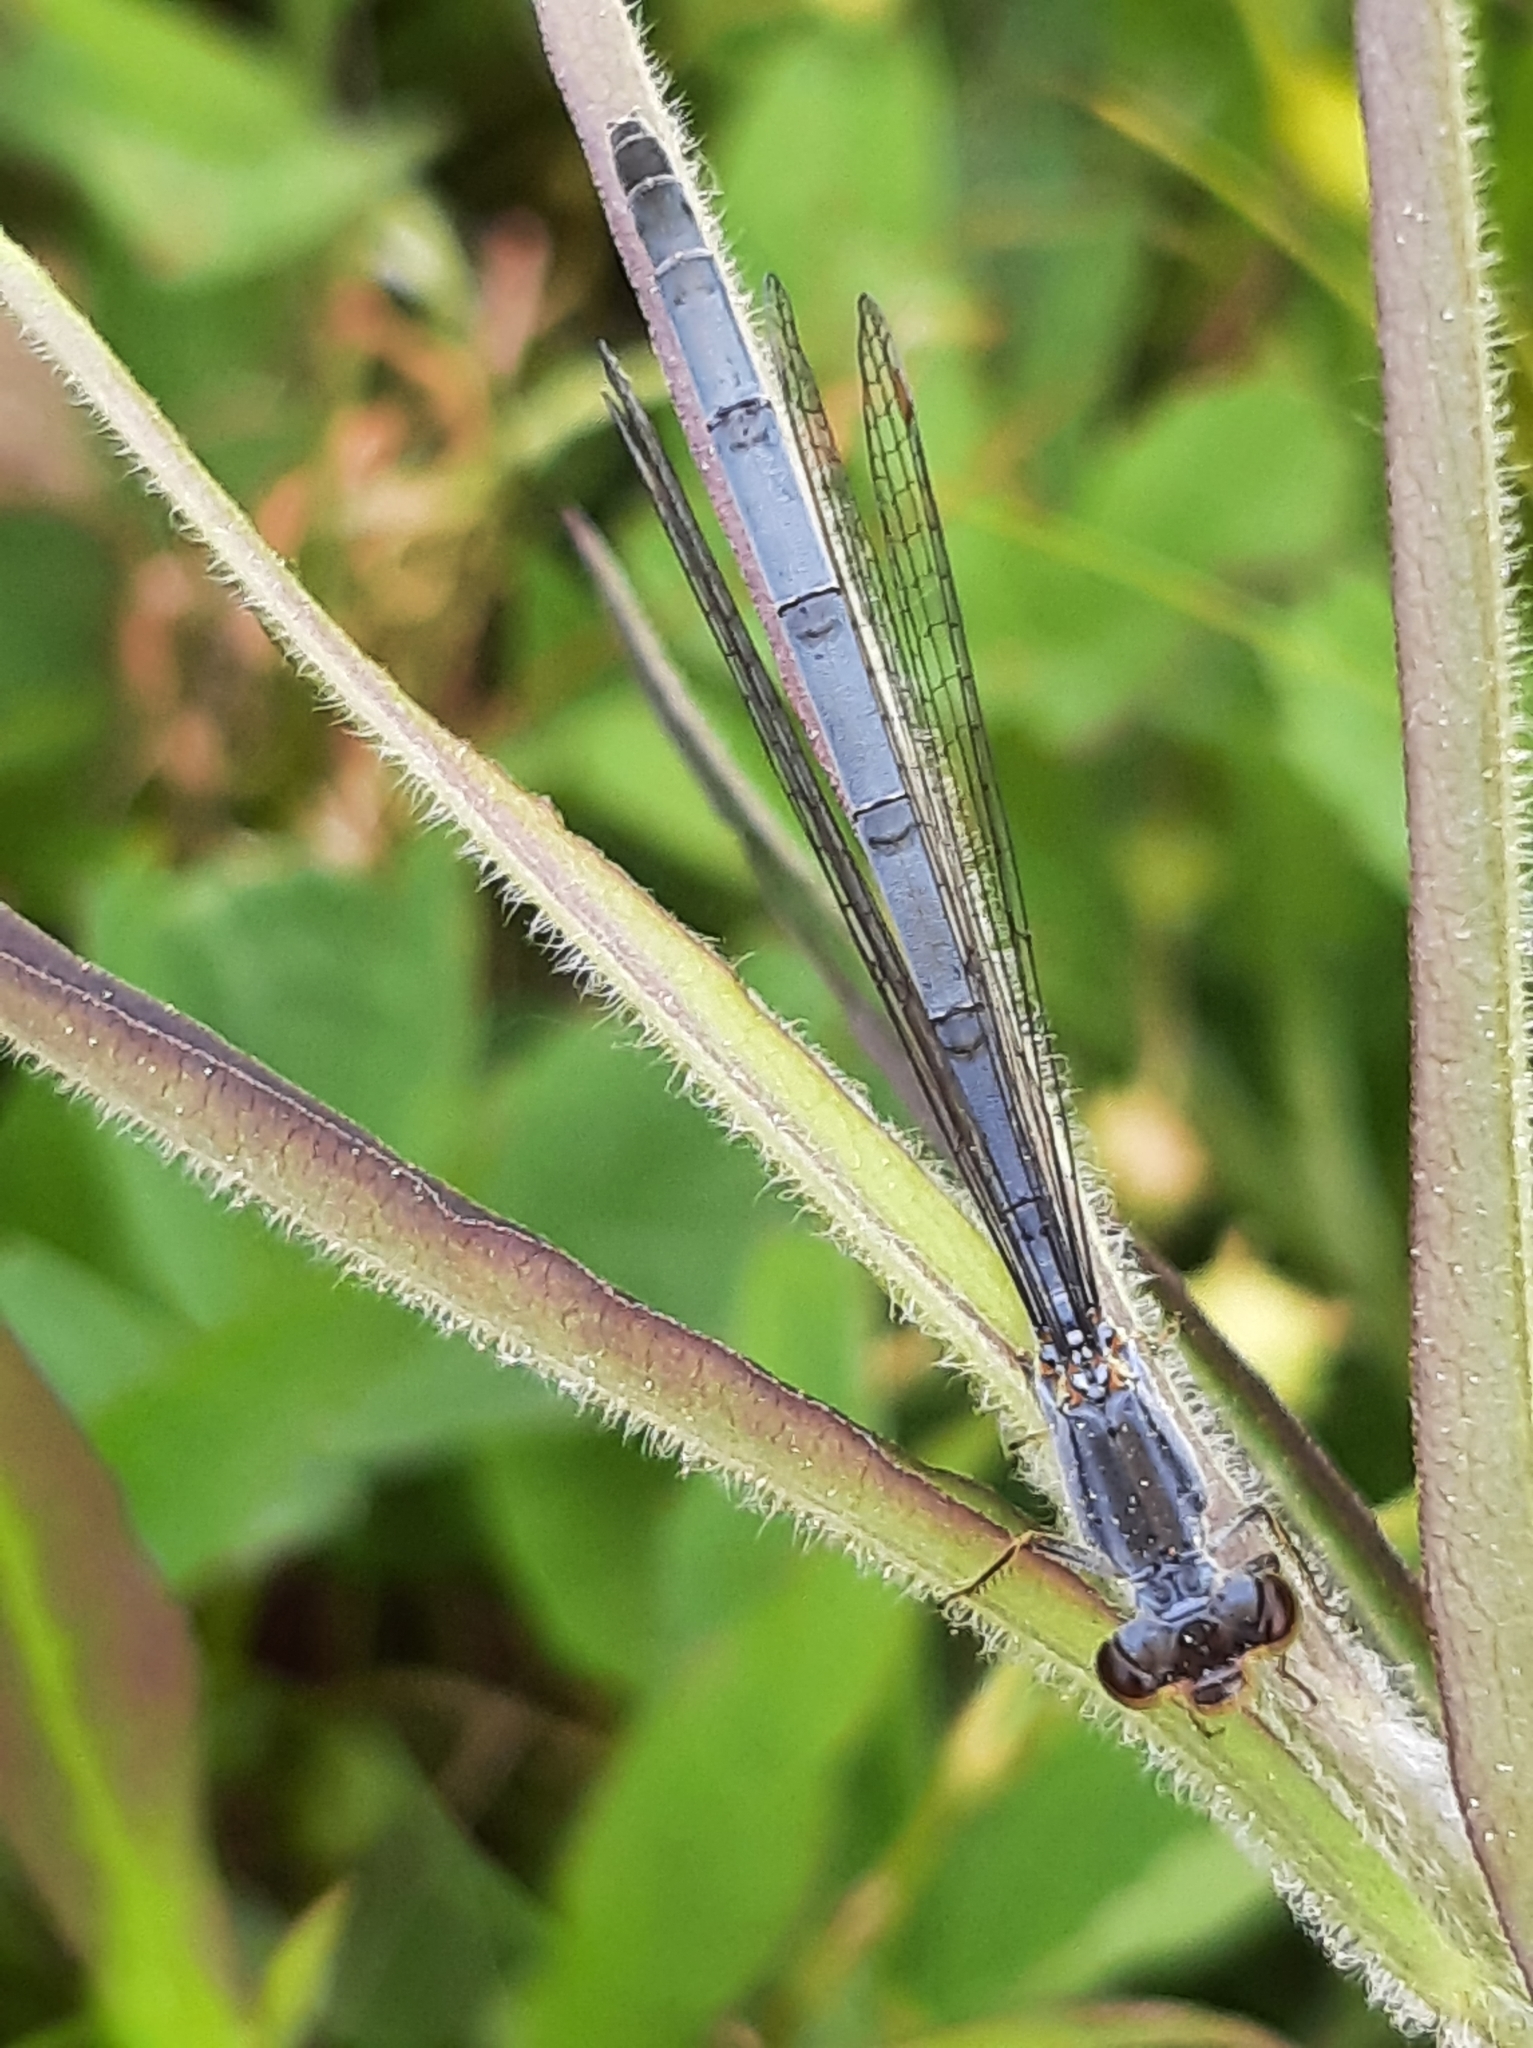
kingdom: Animalia
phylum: Arthropoda
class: Insecta
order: Odonata
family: Coenagrionidae
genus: Ischnura
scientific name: Ischnura verticalis
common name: Eastern forktail
